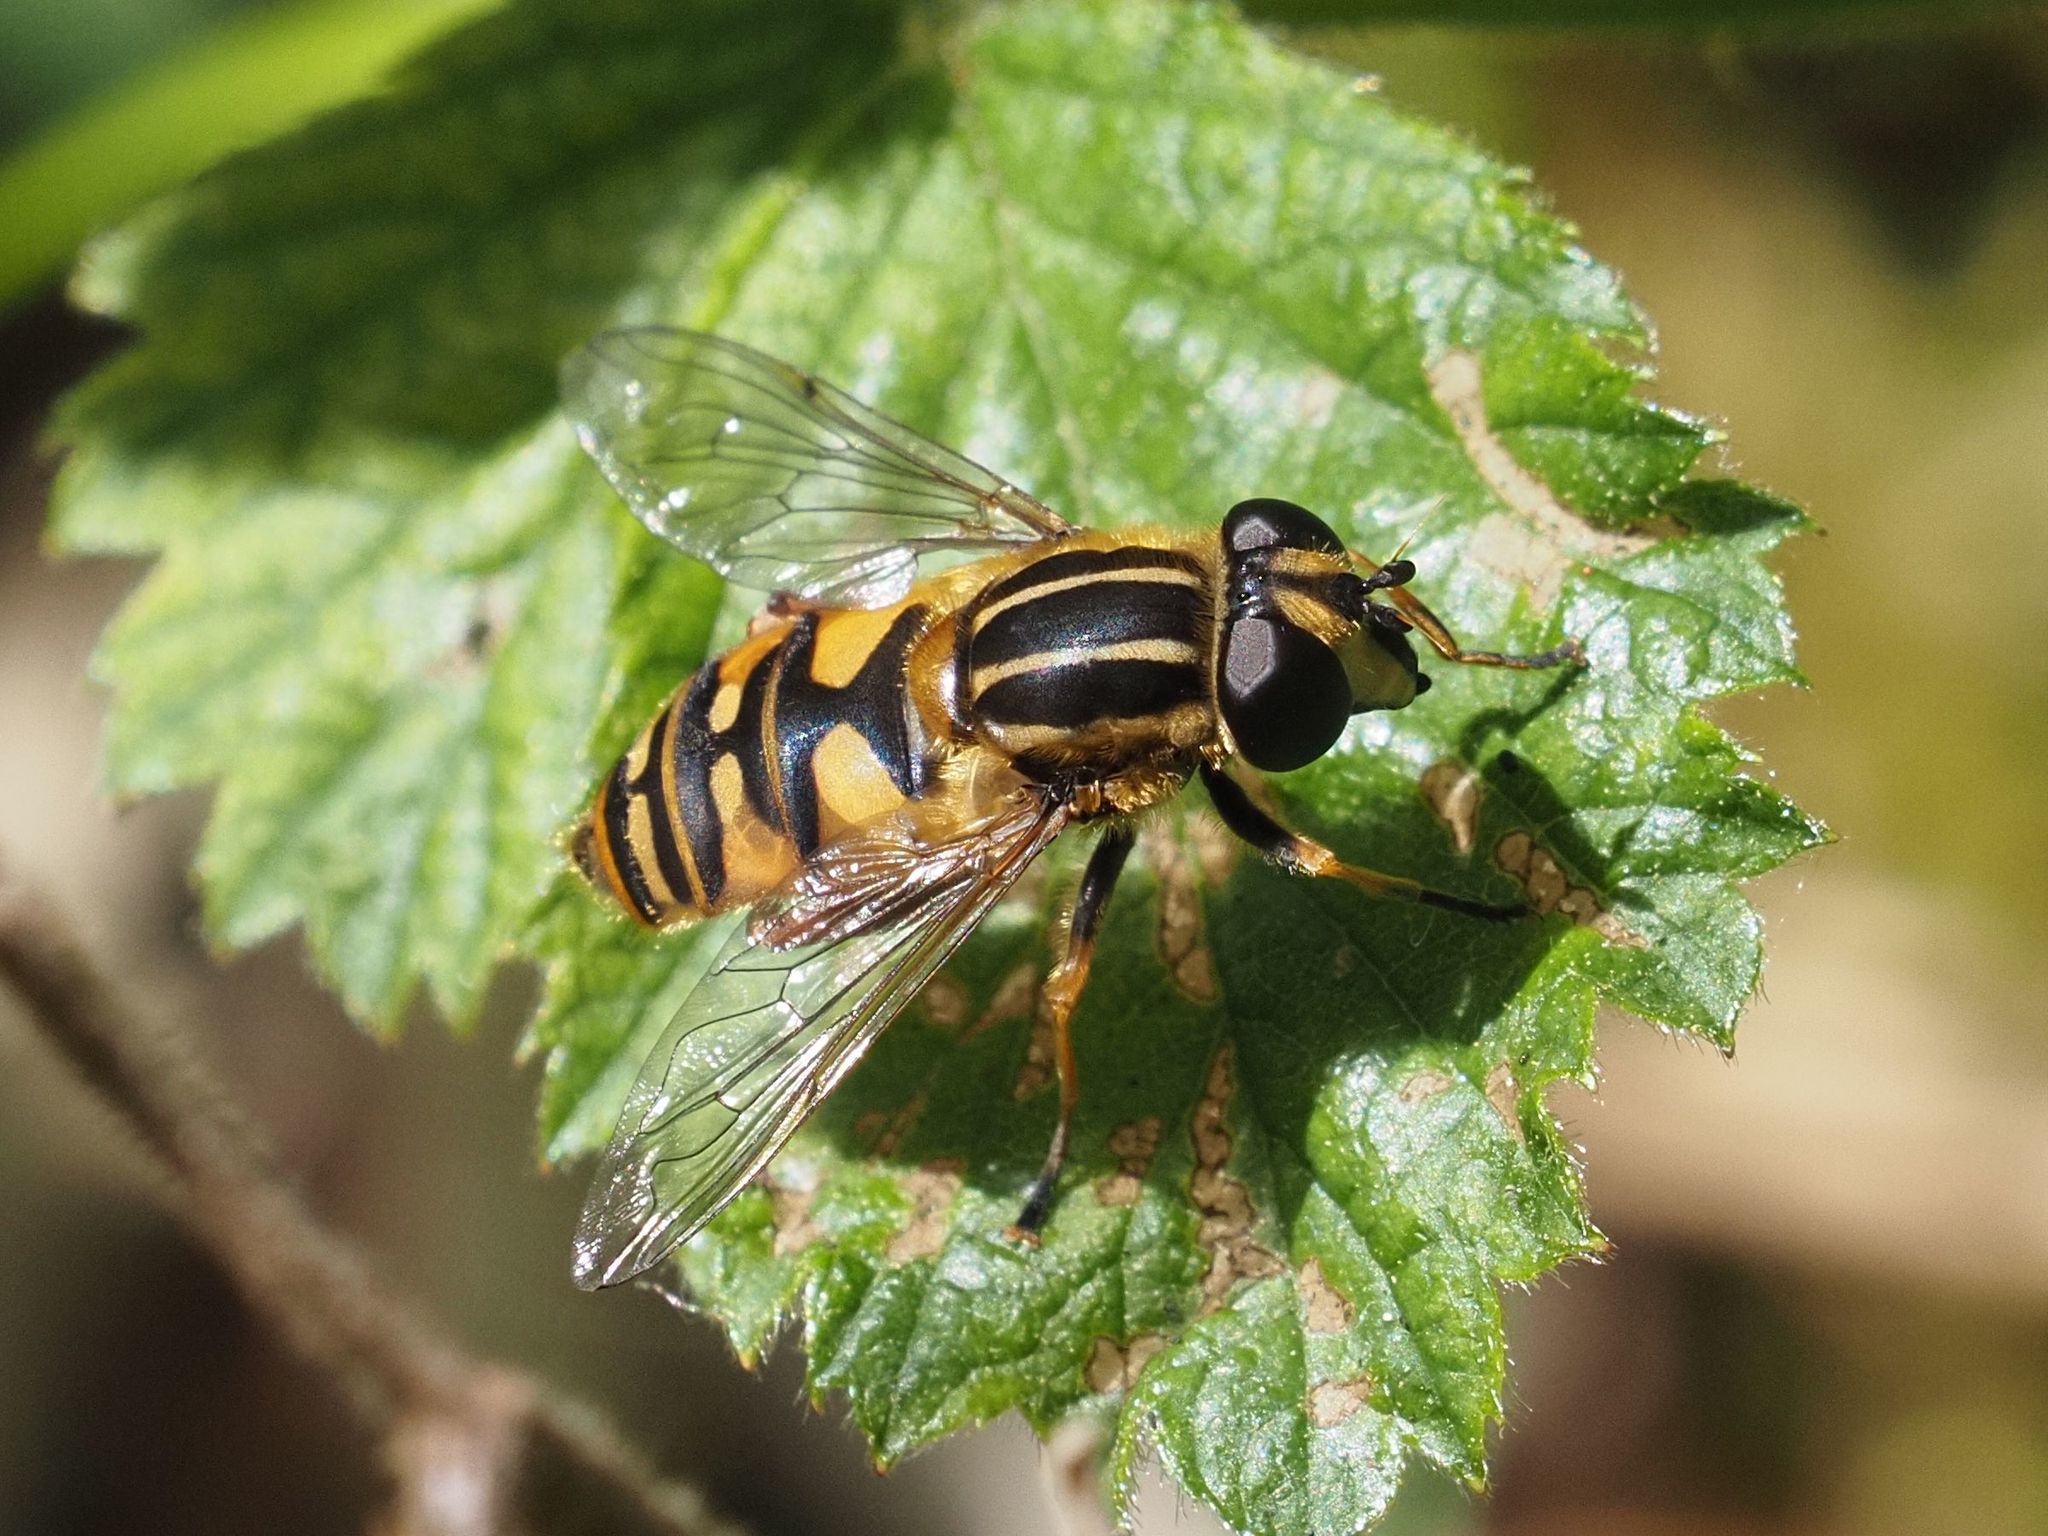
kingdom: Animalia
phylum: Arthropoda
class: Insecta
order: Diptera
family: Syrphidae
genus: Helophilus
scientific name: Helophilus pendulus
